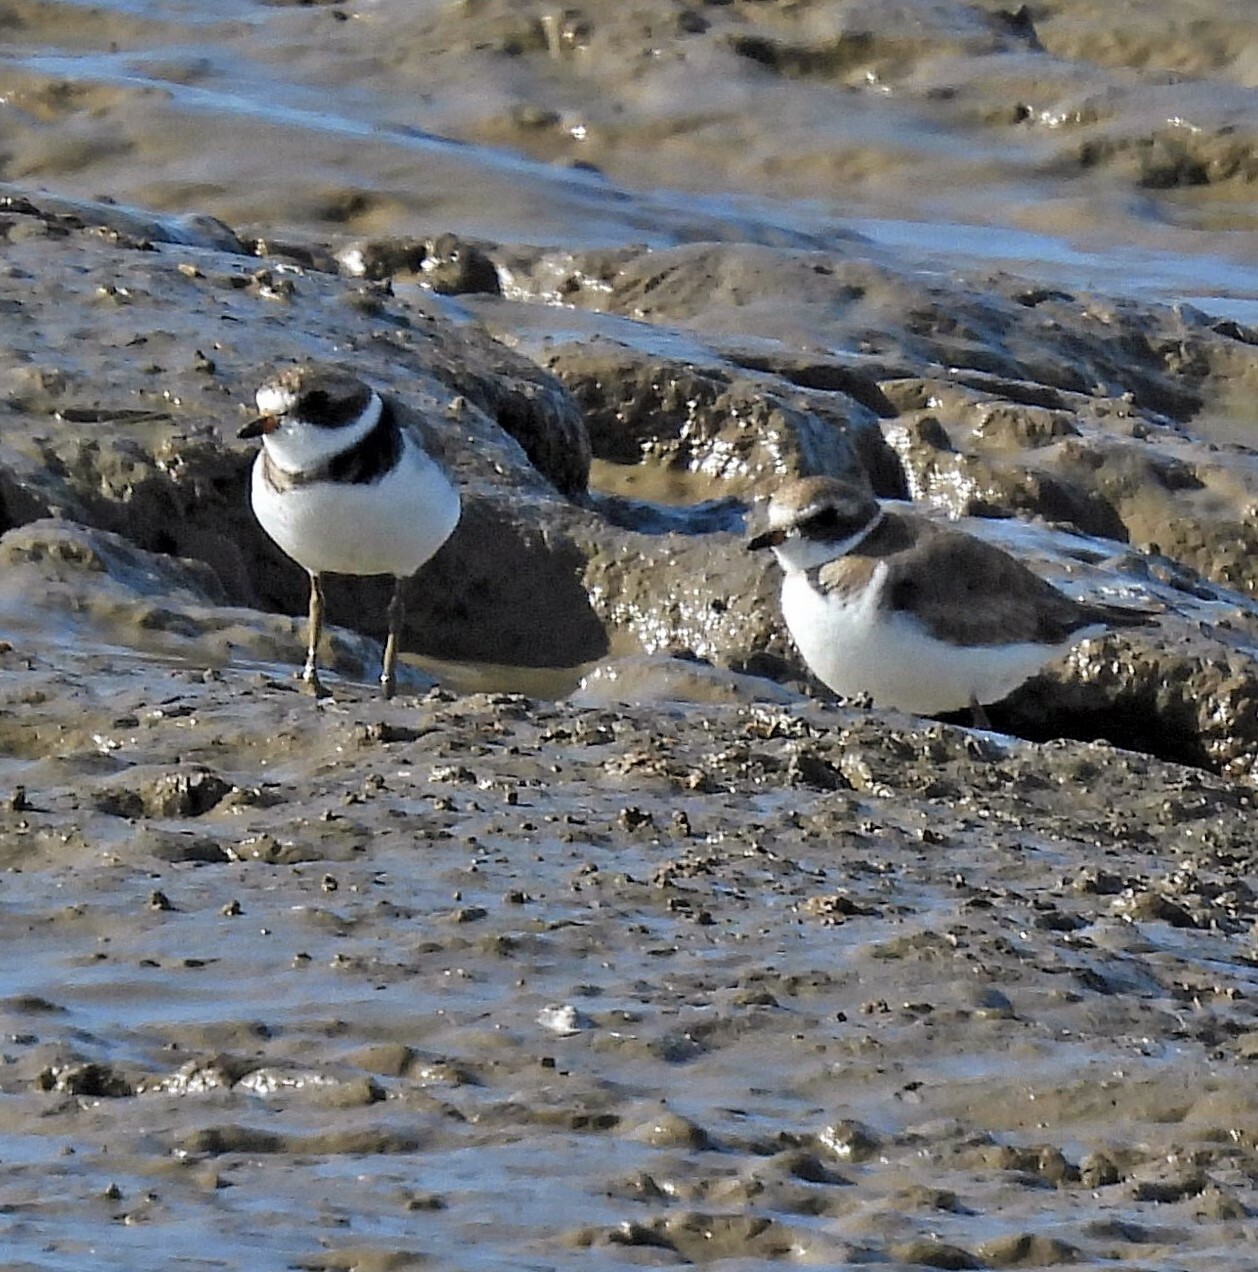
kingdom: Animalia
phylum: Chordata
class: Aves
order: Charadriiformes
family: Charadriidae
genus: Charadrius
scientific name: Charadrius semipalmatus
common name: Semipalmated plover
